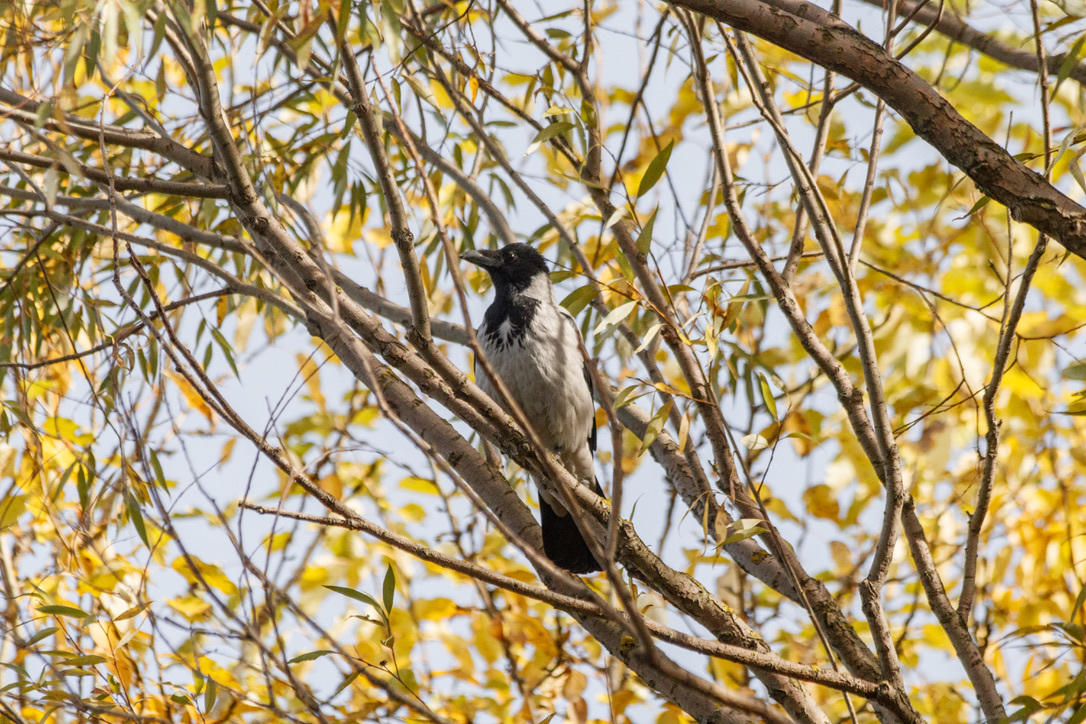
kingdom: Animalia
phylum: Chordata
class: Aves
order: Passeriformes
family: Corvidae
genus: Corvus
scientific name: Corvus cornix
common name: Hooded crow
